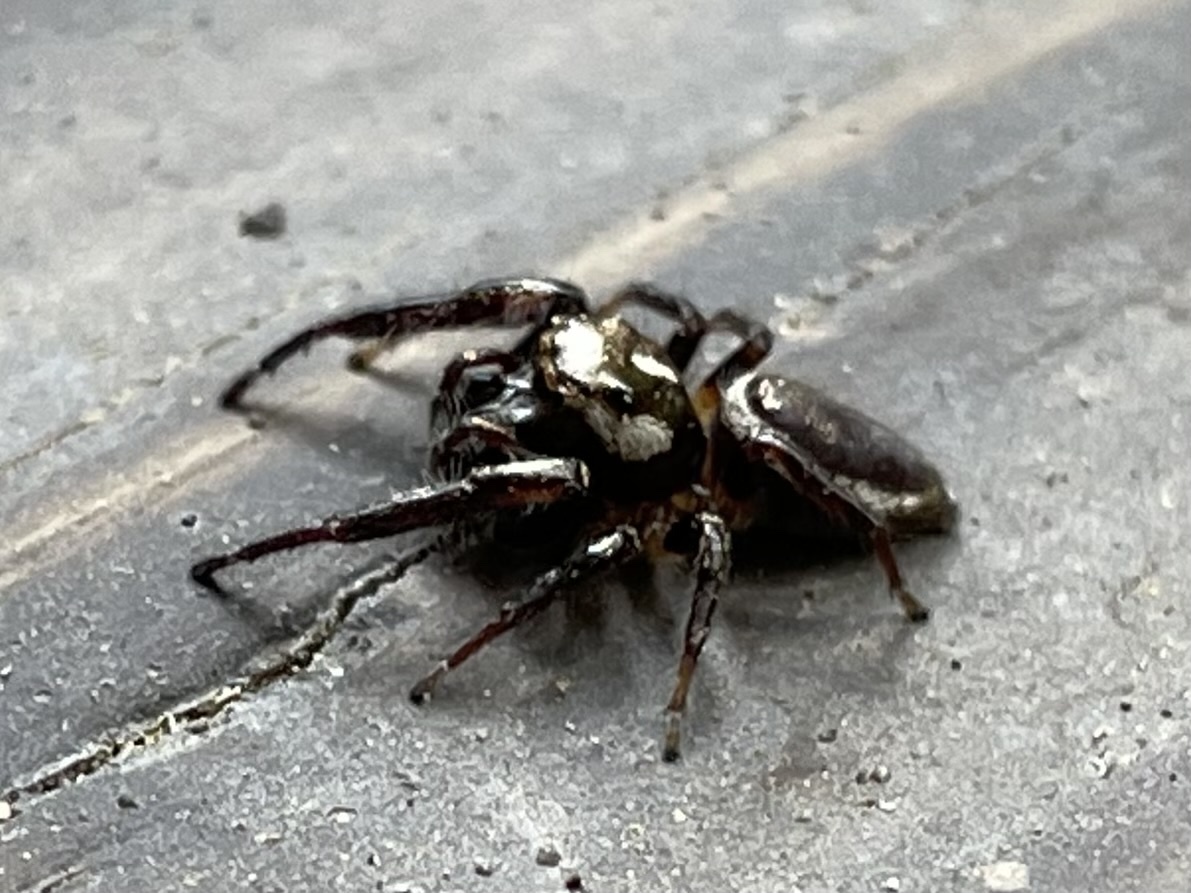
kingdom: Animalia
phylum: Arthropoda
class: Arachnida
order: Araneae
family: Salticidae
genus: Eris
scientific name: Eris militaris
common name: Bronze jumper
